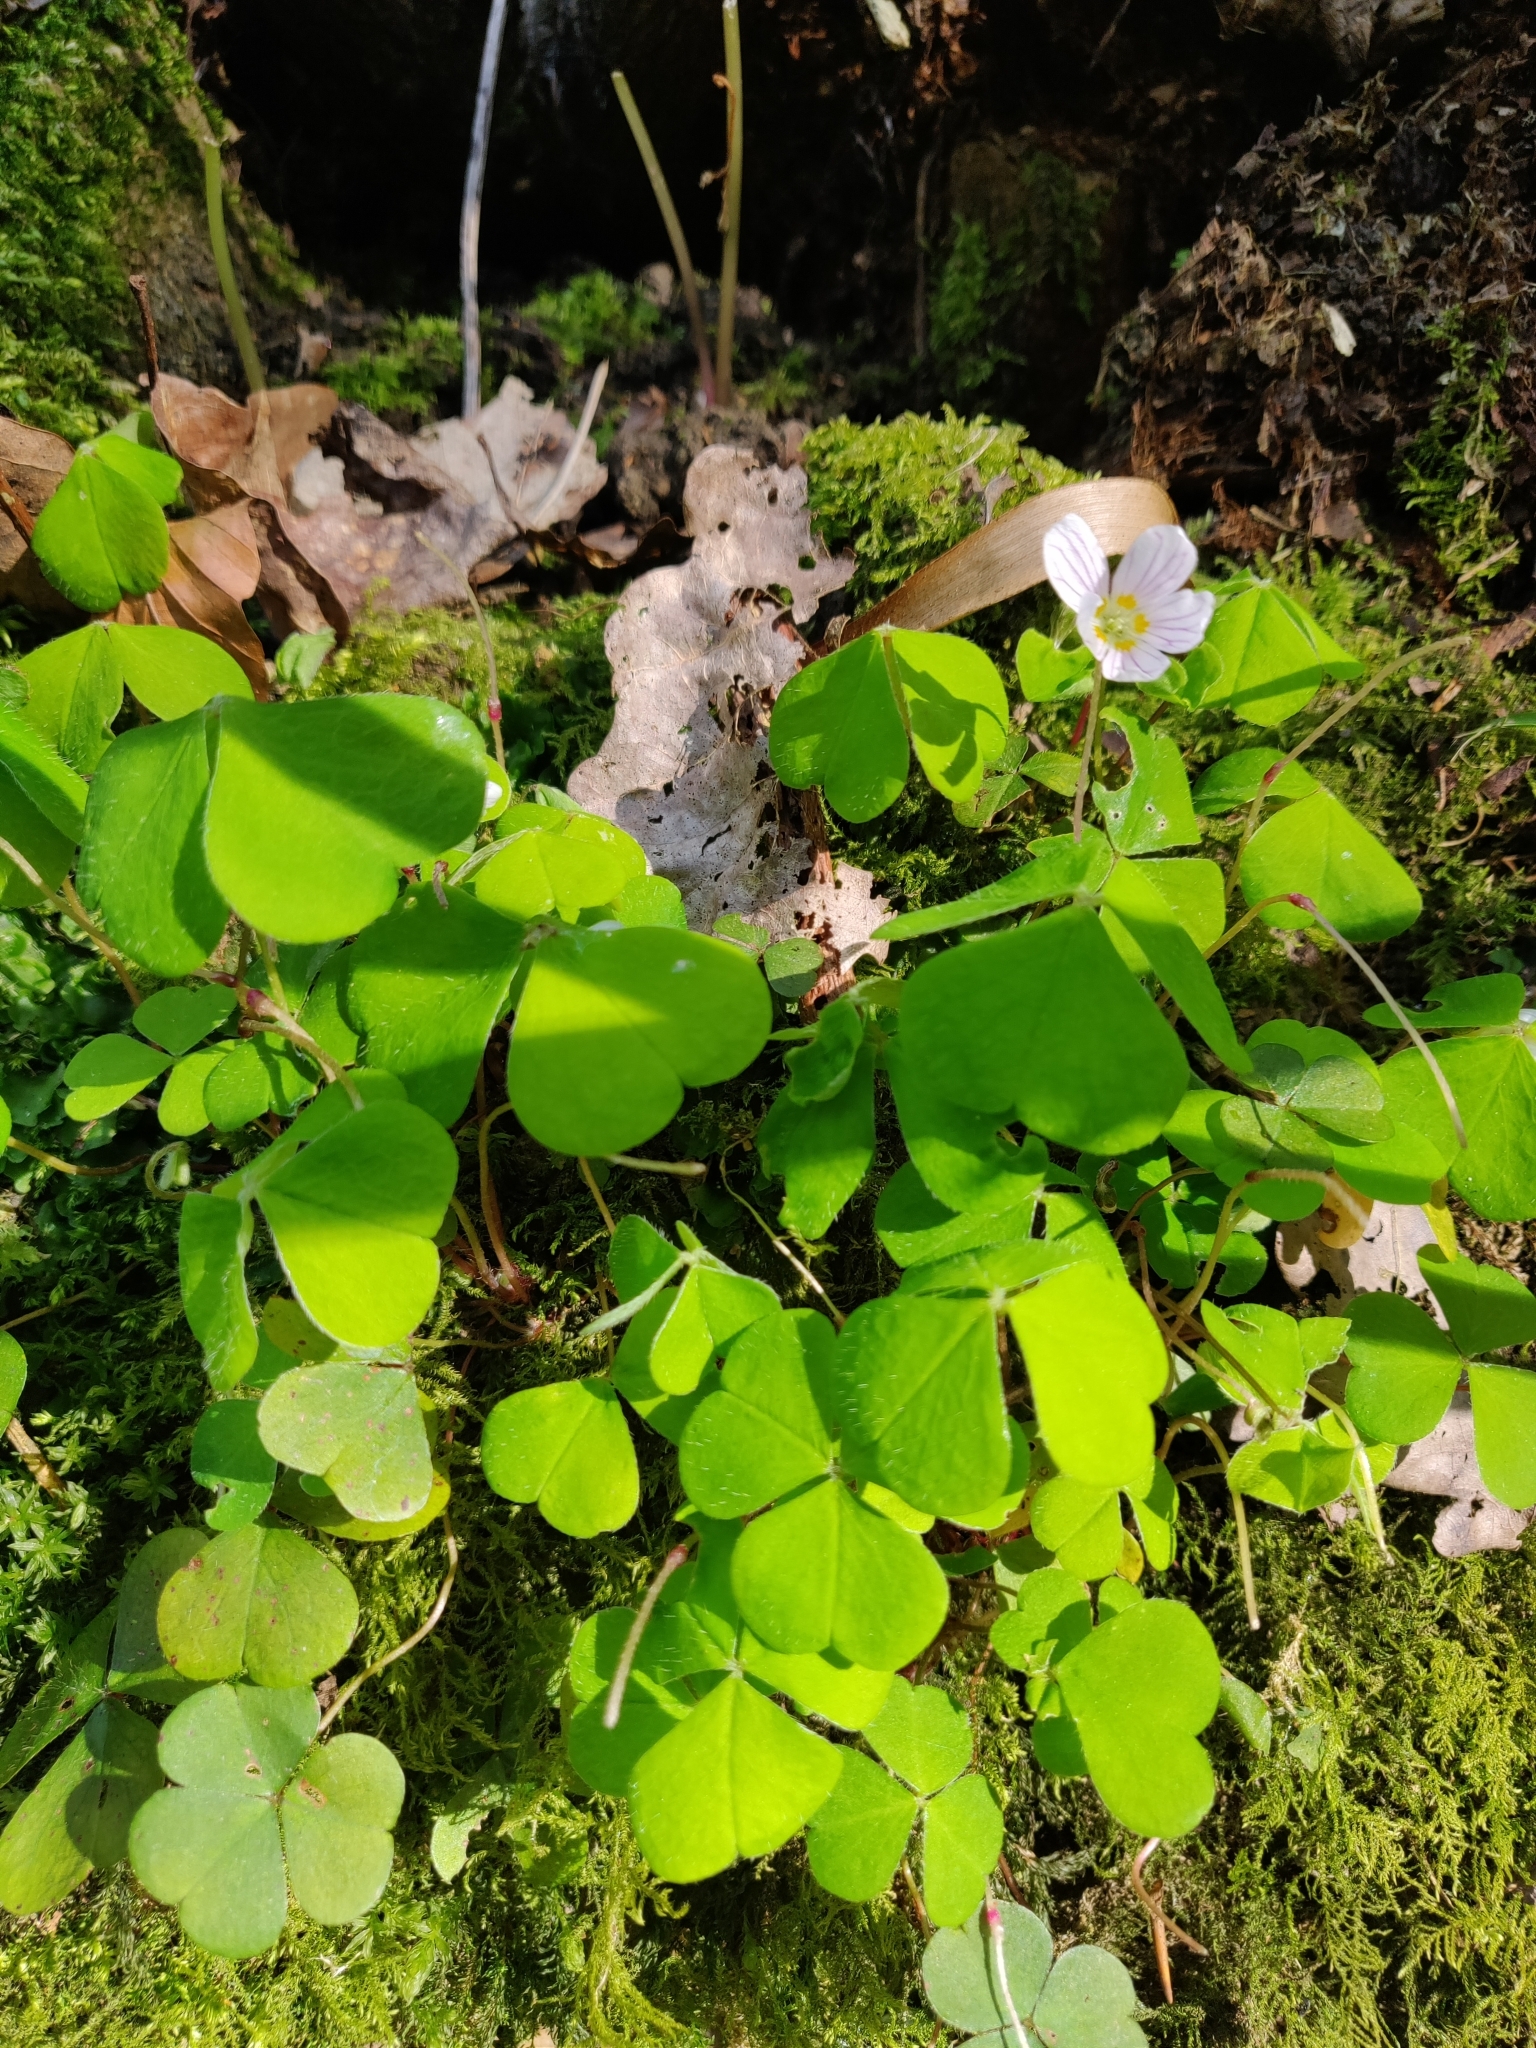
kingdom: Plantae
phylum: Tracheophyta
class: Magnoliopsida
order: Oxalidales
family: Oxalidaceae
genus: Oxalis
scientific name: Oxalis acetosella
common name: Wood-sorrel
